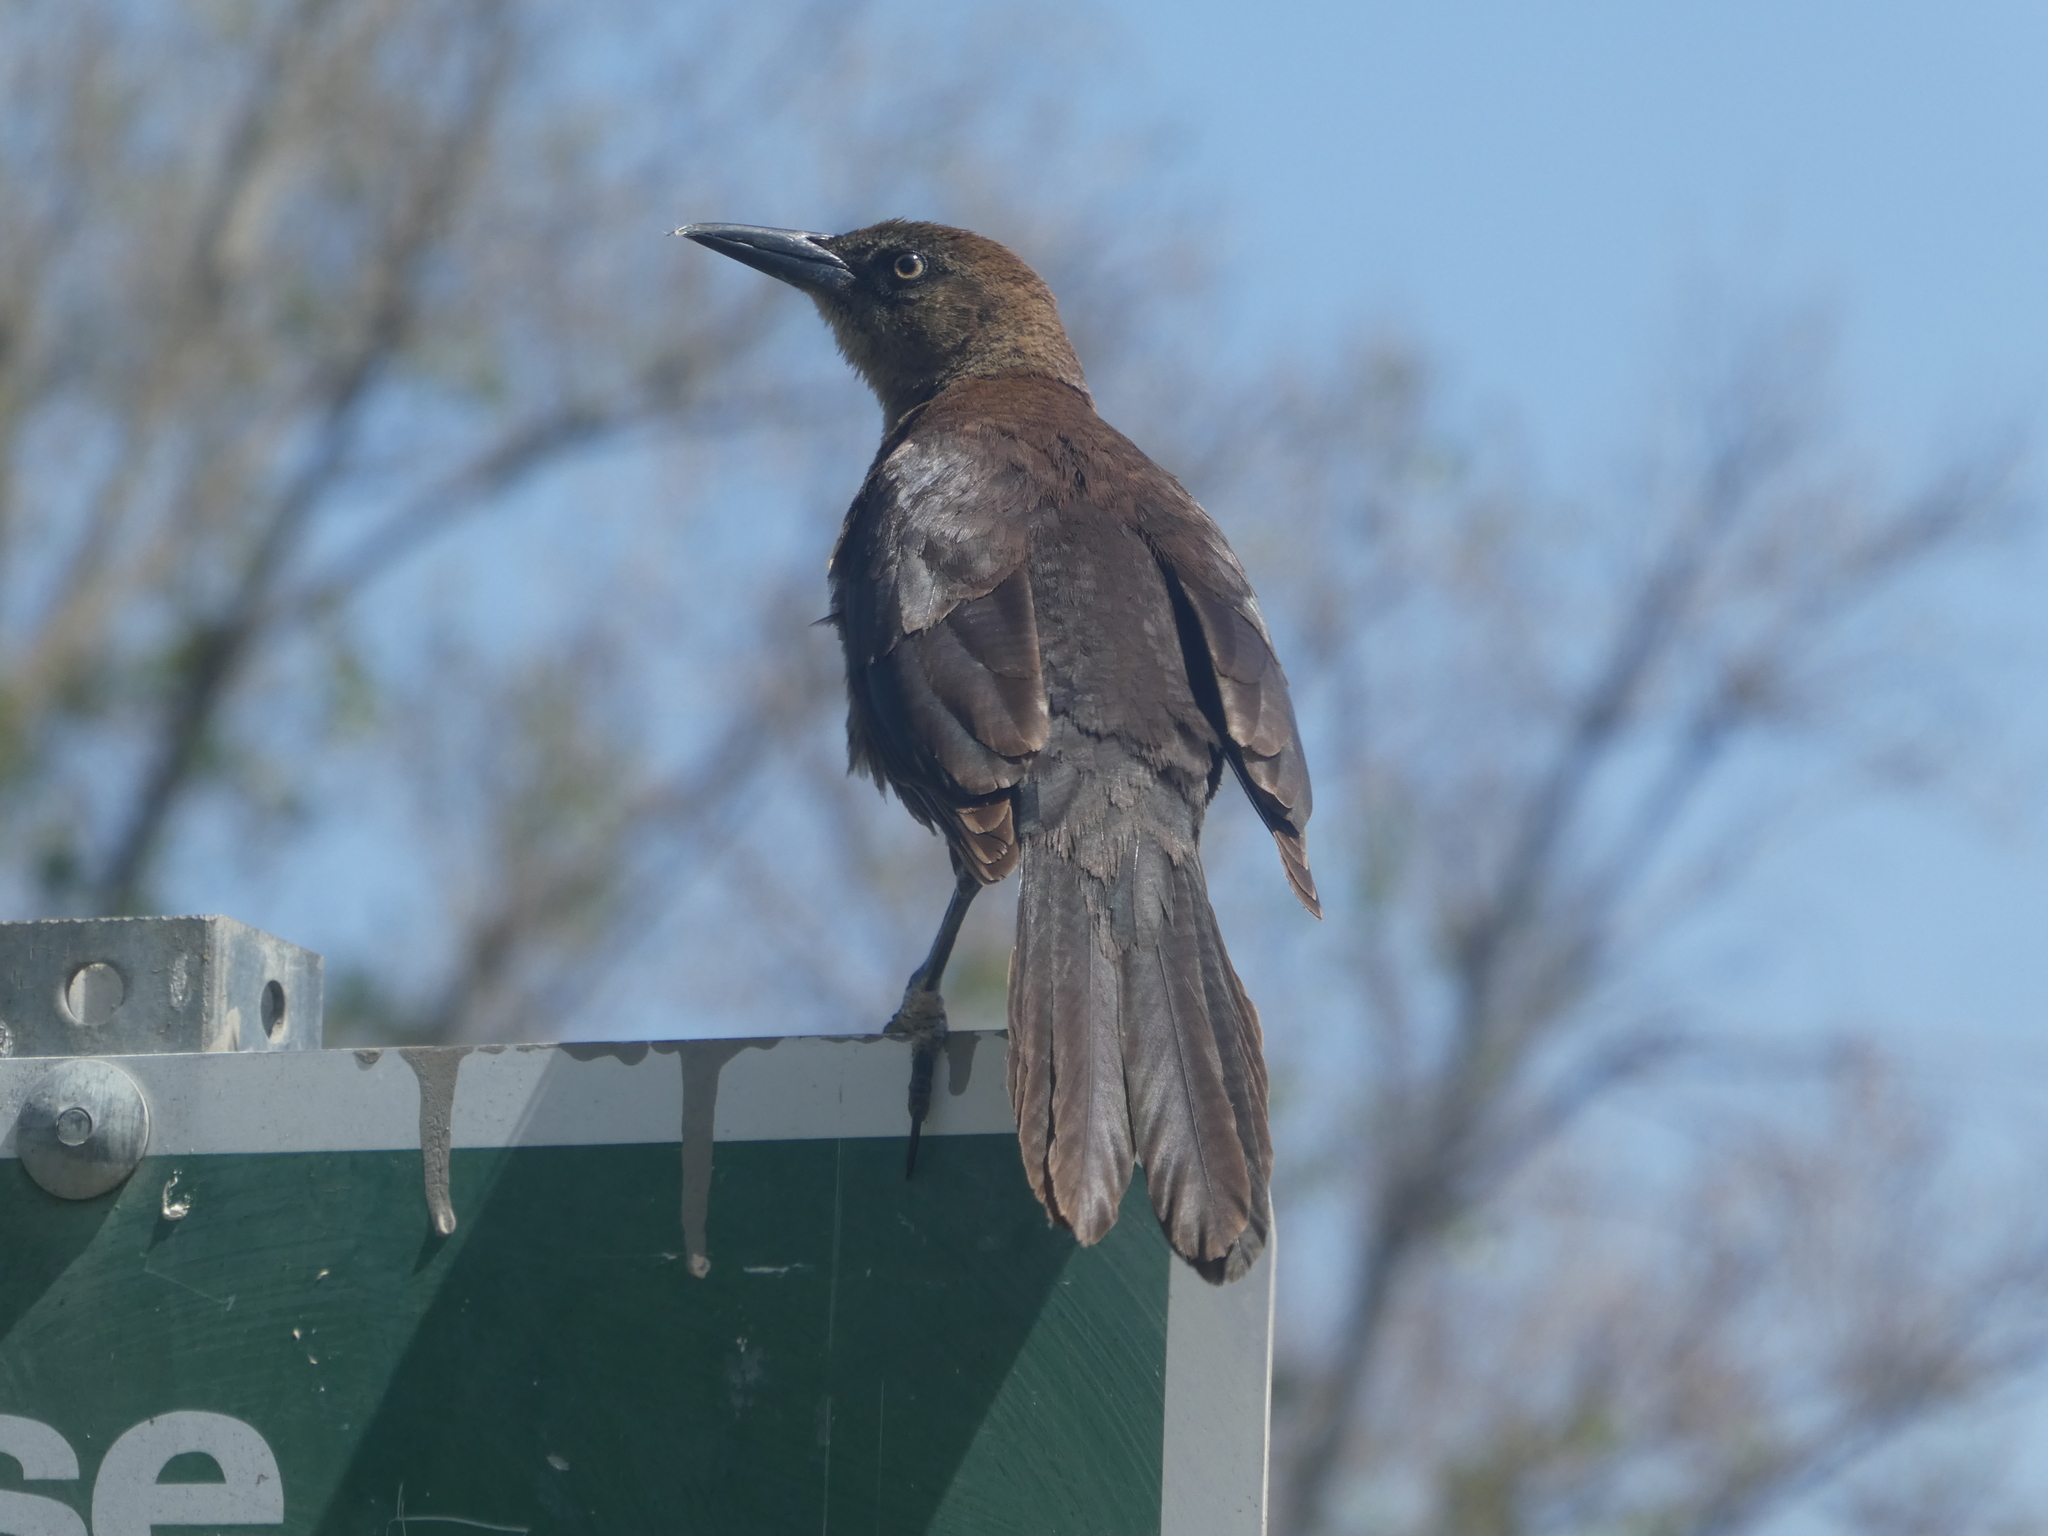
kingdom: Animalia
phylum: Chordata
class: Aves
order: Passeriformes
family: Icteridae
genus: Quiscalus
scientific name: Quiscalus mexicanus
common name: Great-tailed grackle
